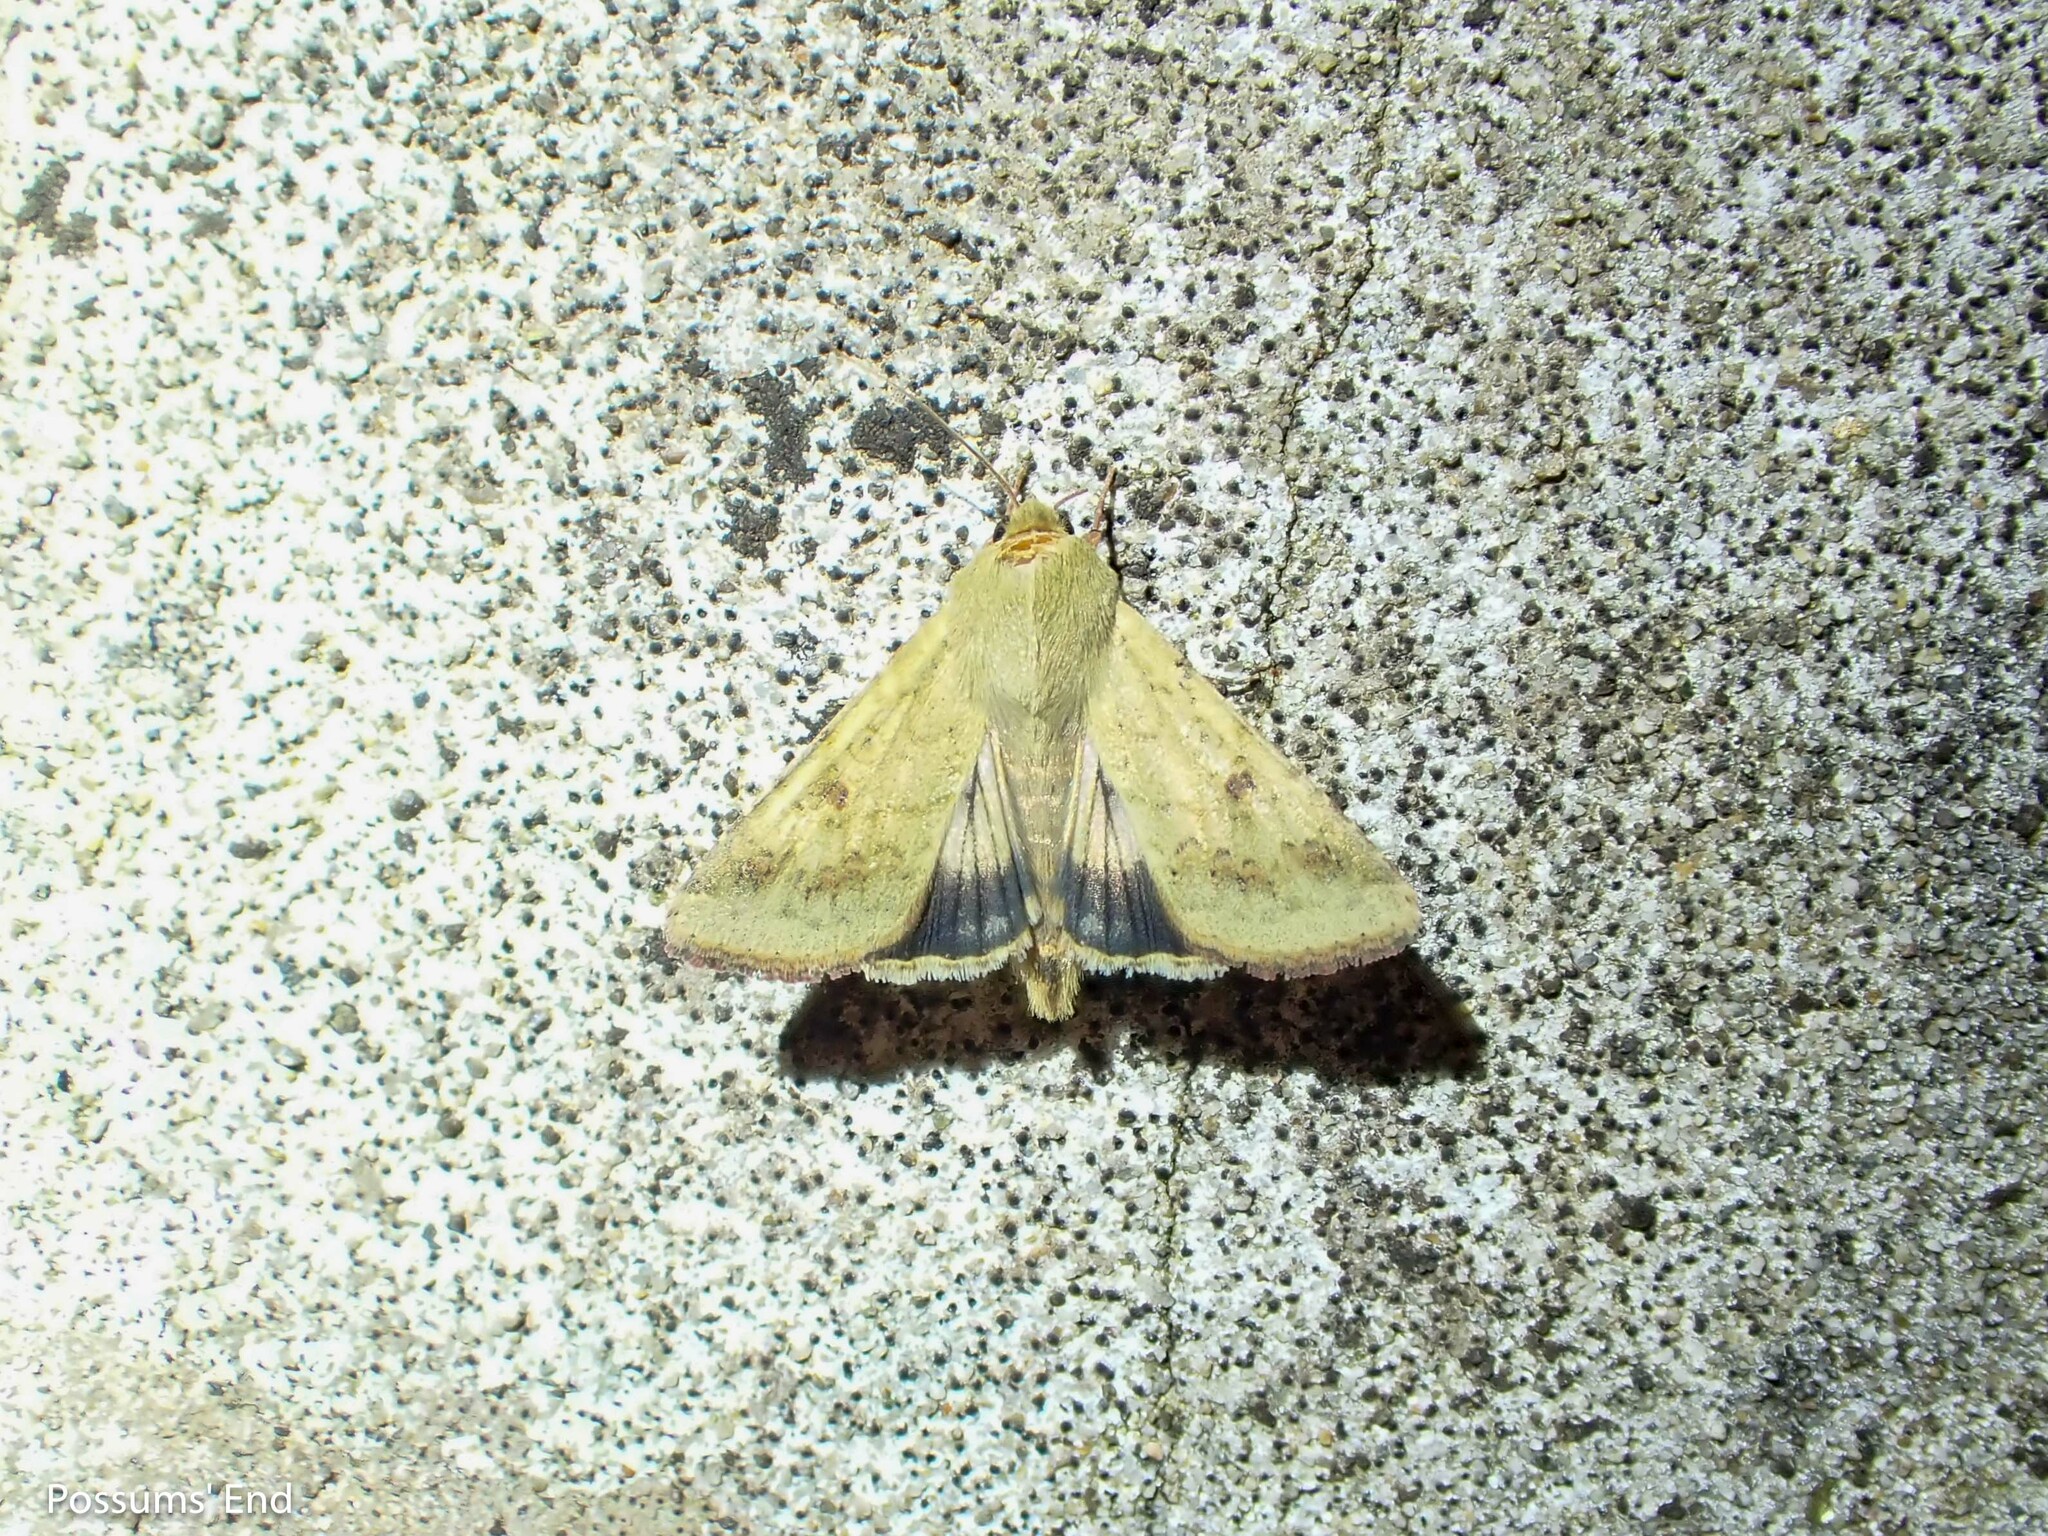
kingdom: Animalia
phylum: Arthropoda
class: Insecta
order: Lepidoptera
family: Noctuidae
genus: Helicoverpa
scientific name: Helicoverpa armigera
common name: Cotton bollworm
